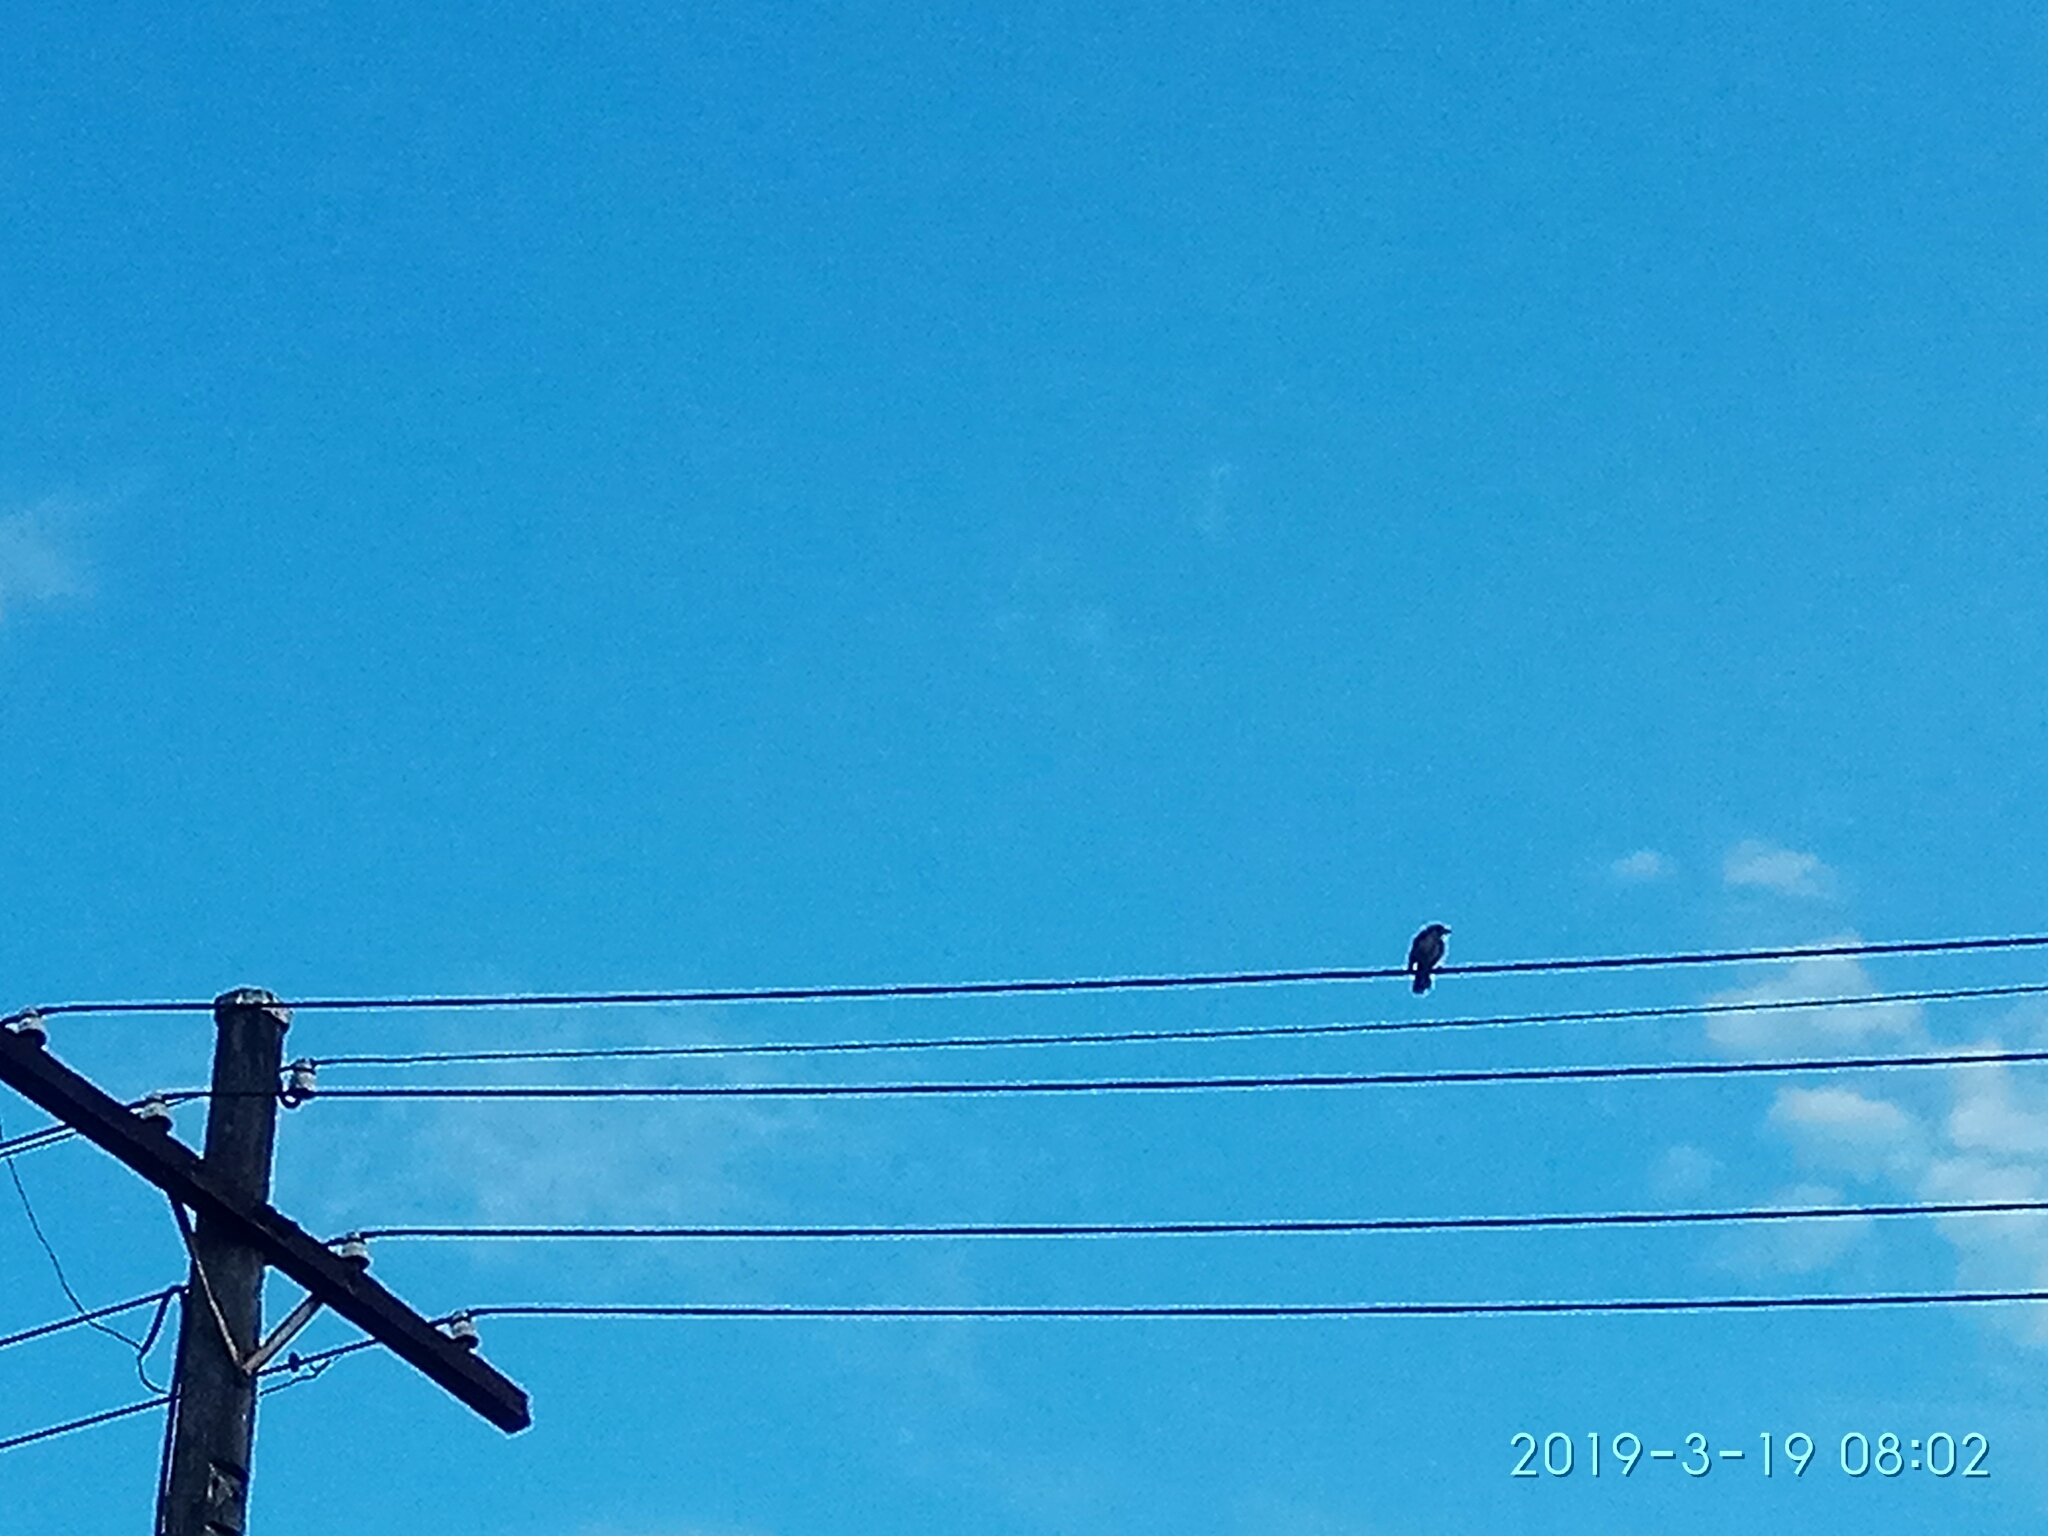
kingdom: Animalia
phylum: Chordata
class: Aves
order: Passeriformes
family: Meliphagidae
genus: Manorina
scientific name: Manorina melanocephala
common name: Noisy miner
